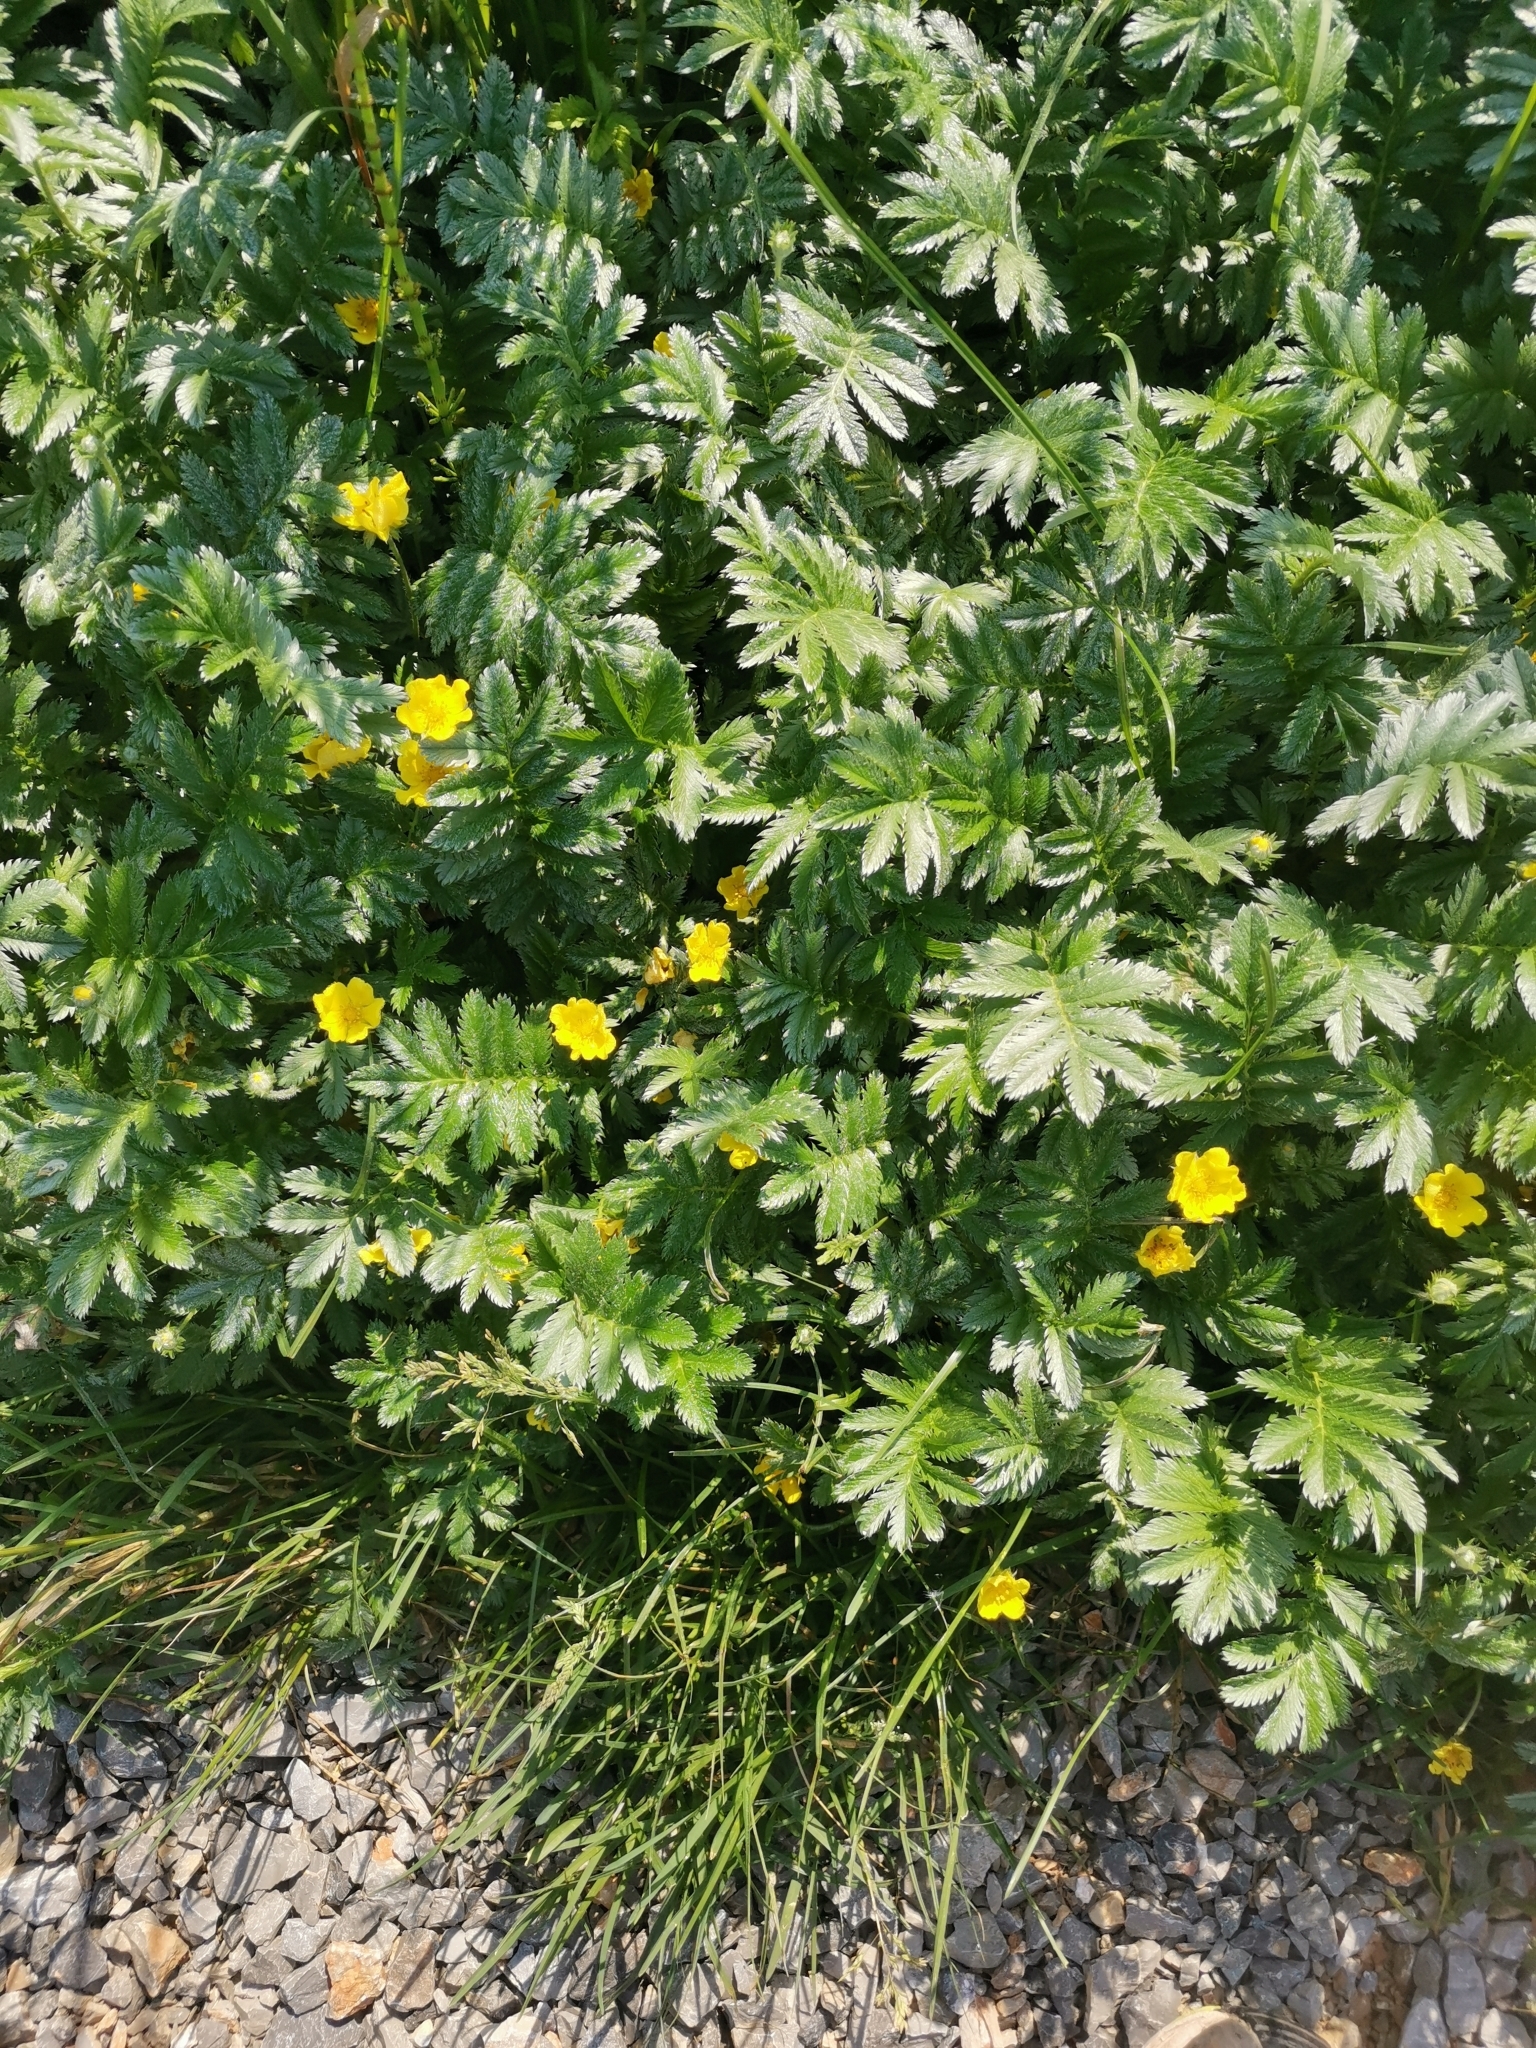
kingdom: Plantae
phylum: Tracheophyta
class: Magnoliopsida
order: Rosales
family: Rosaceae
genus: Argentina
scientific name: Argentina anserina
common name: Common silverweed
